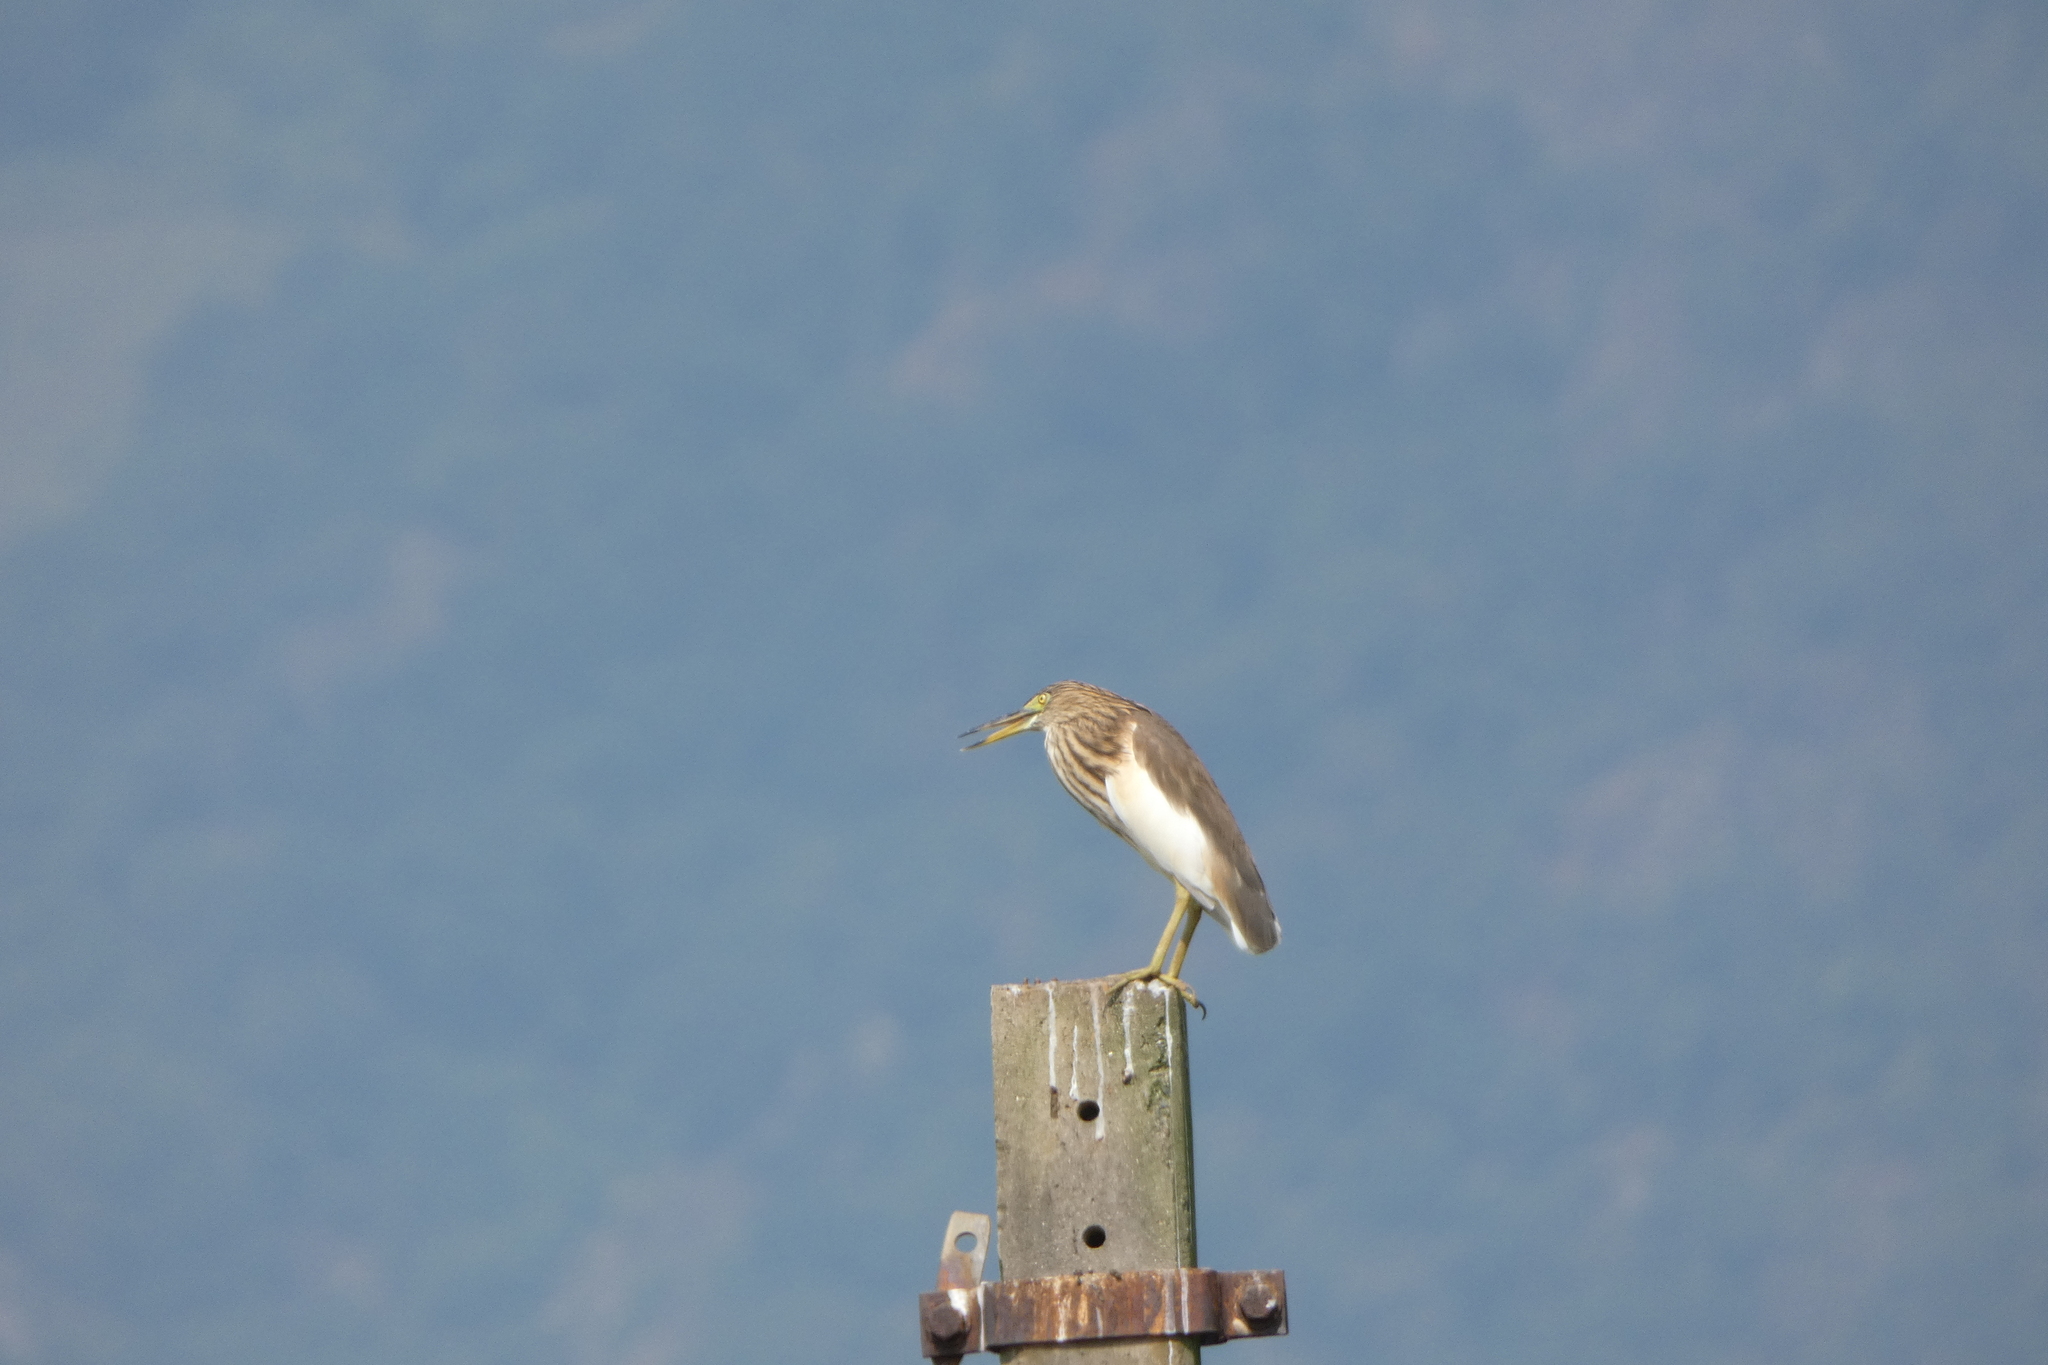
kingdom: Animalia
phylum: Chordata
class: Aves
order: Pelecaniformes
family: Ardeidae
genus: Ardeola
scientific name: Ardeola grayii
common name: Indian pond heron
